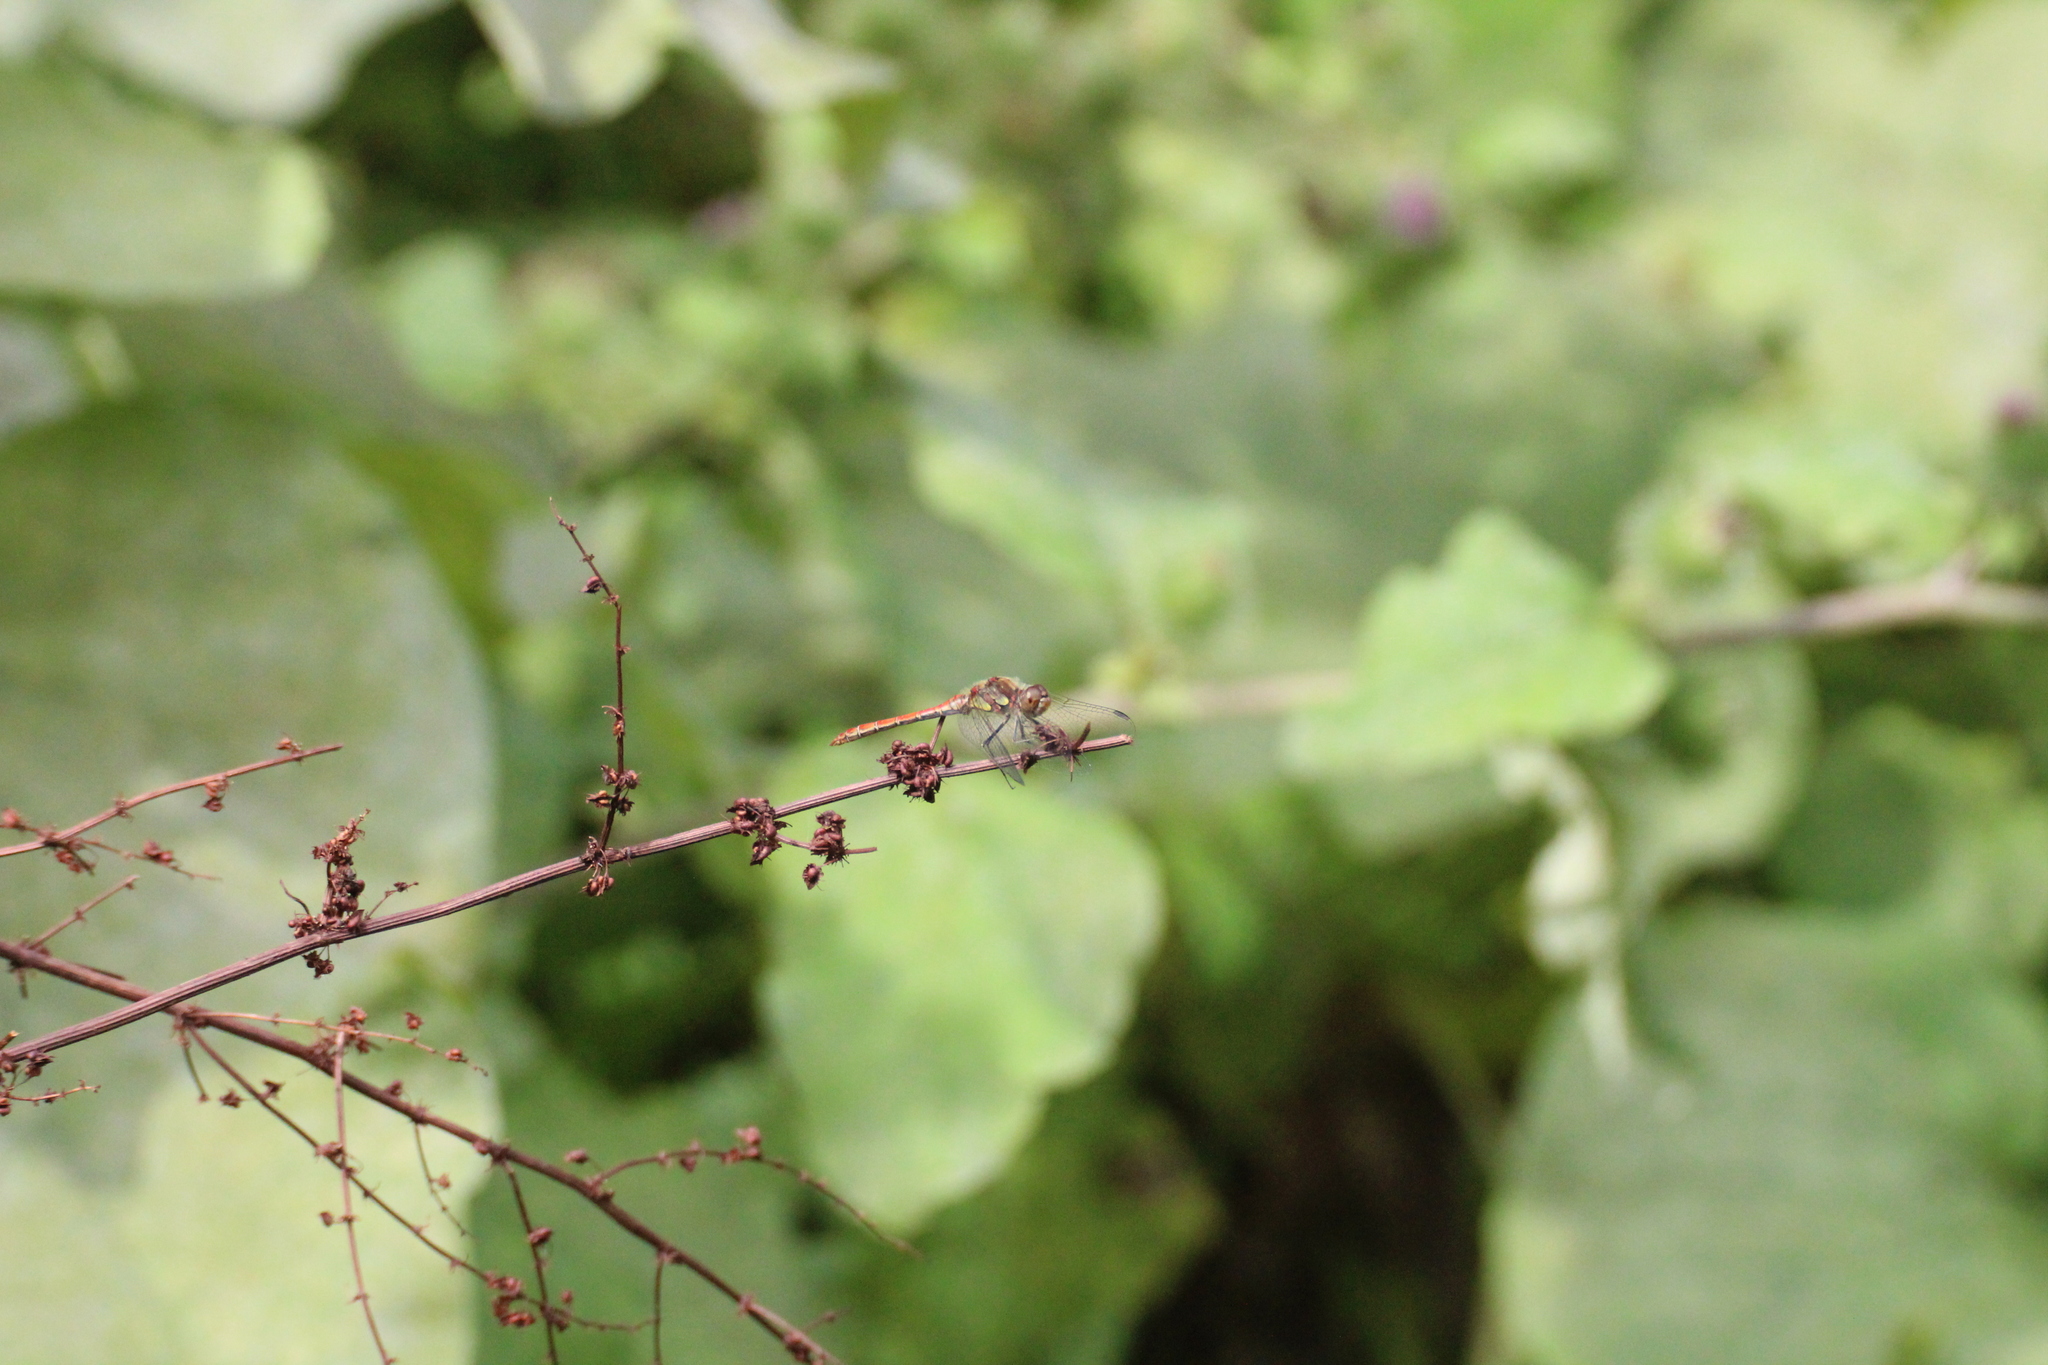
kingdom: Animalia
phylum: Arthropoda
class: Insecta
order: Odonata
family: Libellulidae
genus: Sympetrum
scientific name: Sympetrum striolatum
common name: Common darter
